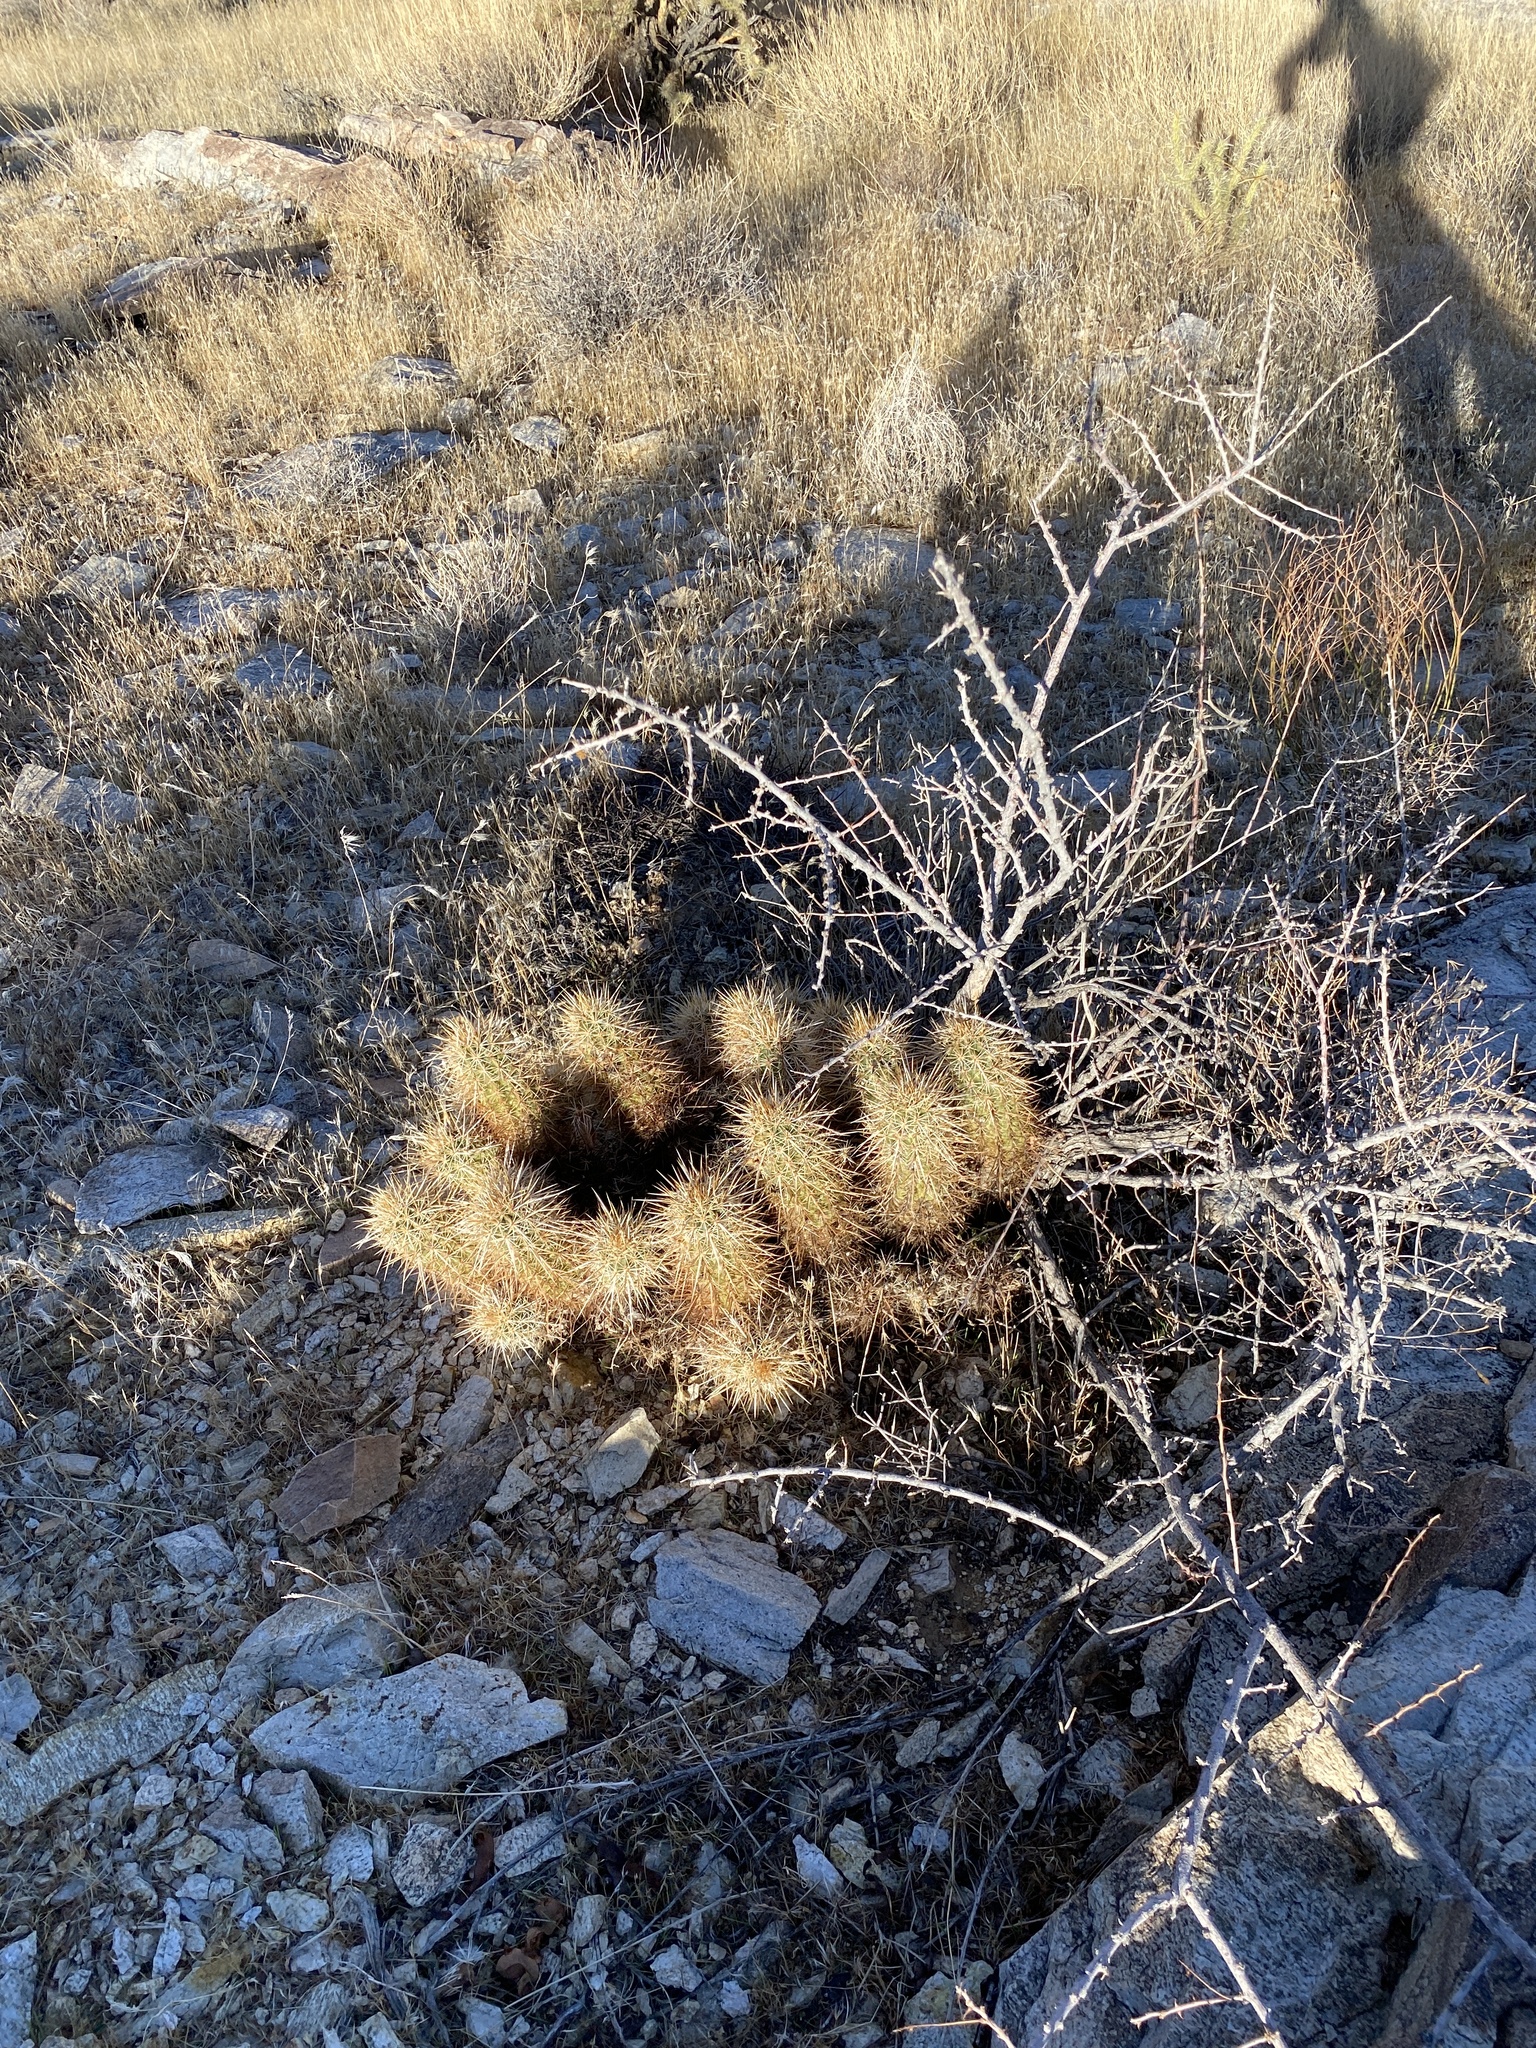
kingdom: Plantae
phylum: Tracheophyta
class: Magnoliopsida
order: Caryophyllales
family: Cactaceae
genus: Echinocereus
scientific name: Echinocereus engelmannii
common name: Engelmann's hedgehog cactus
